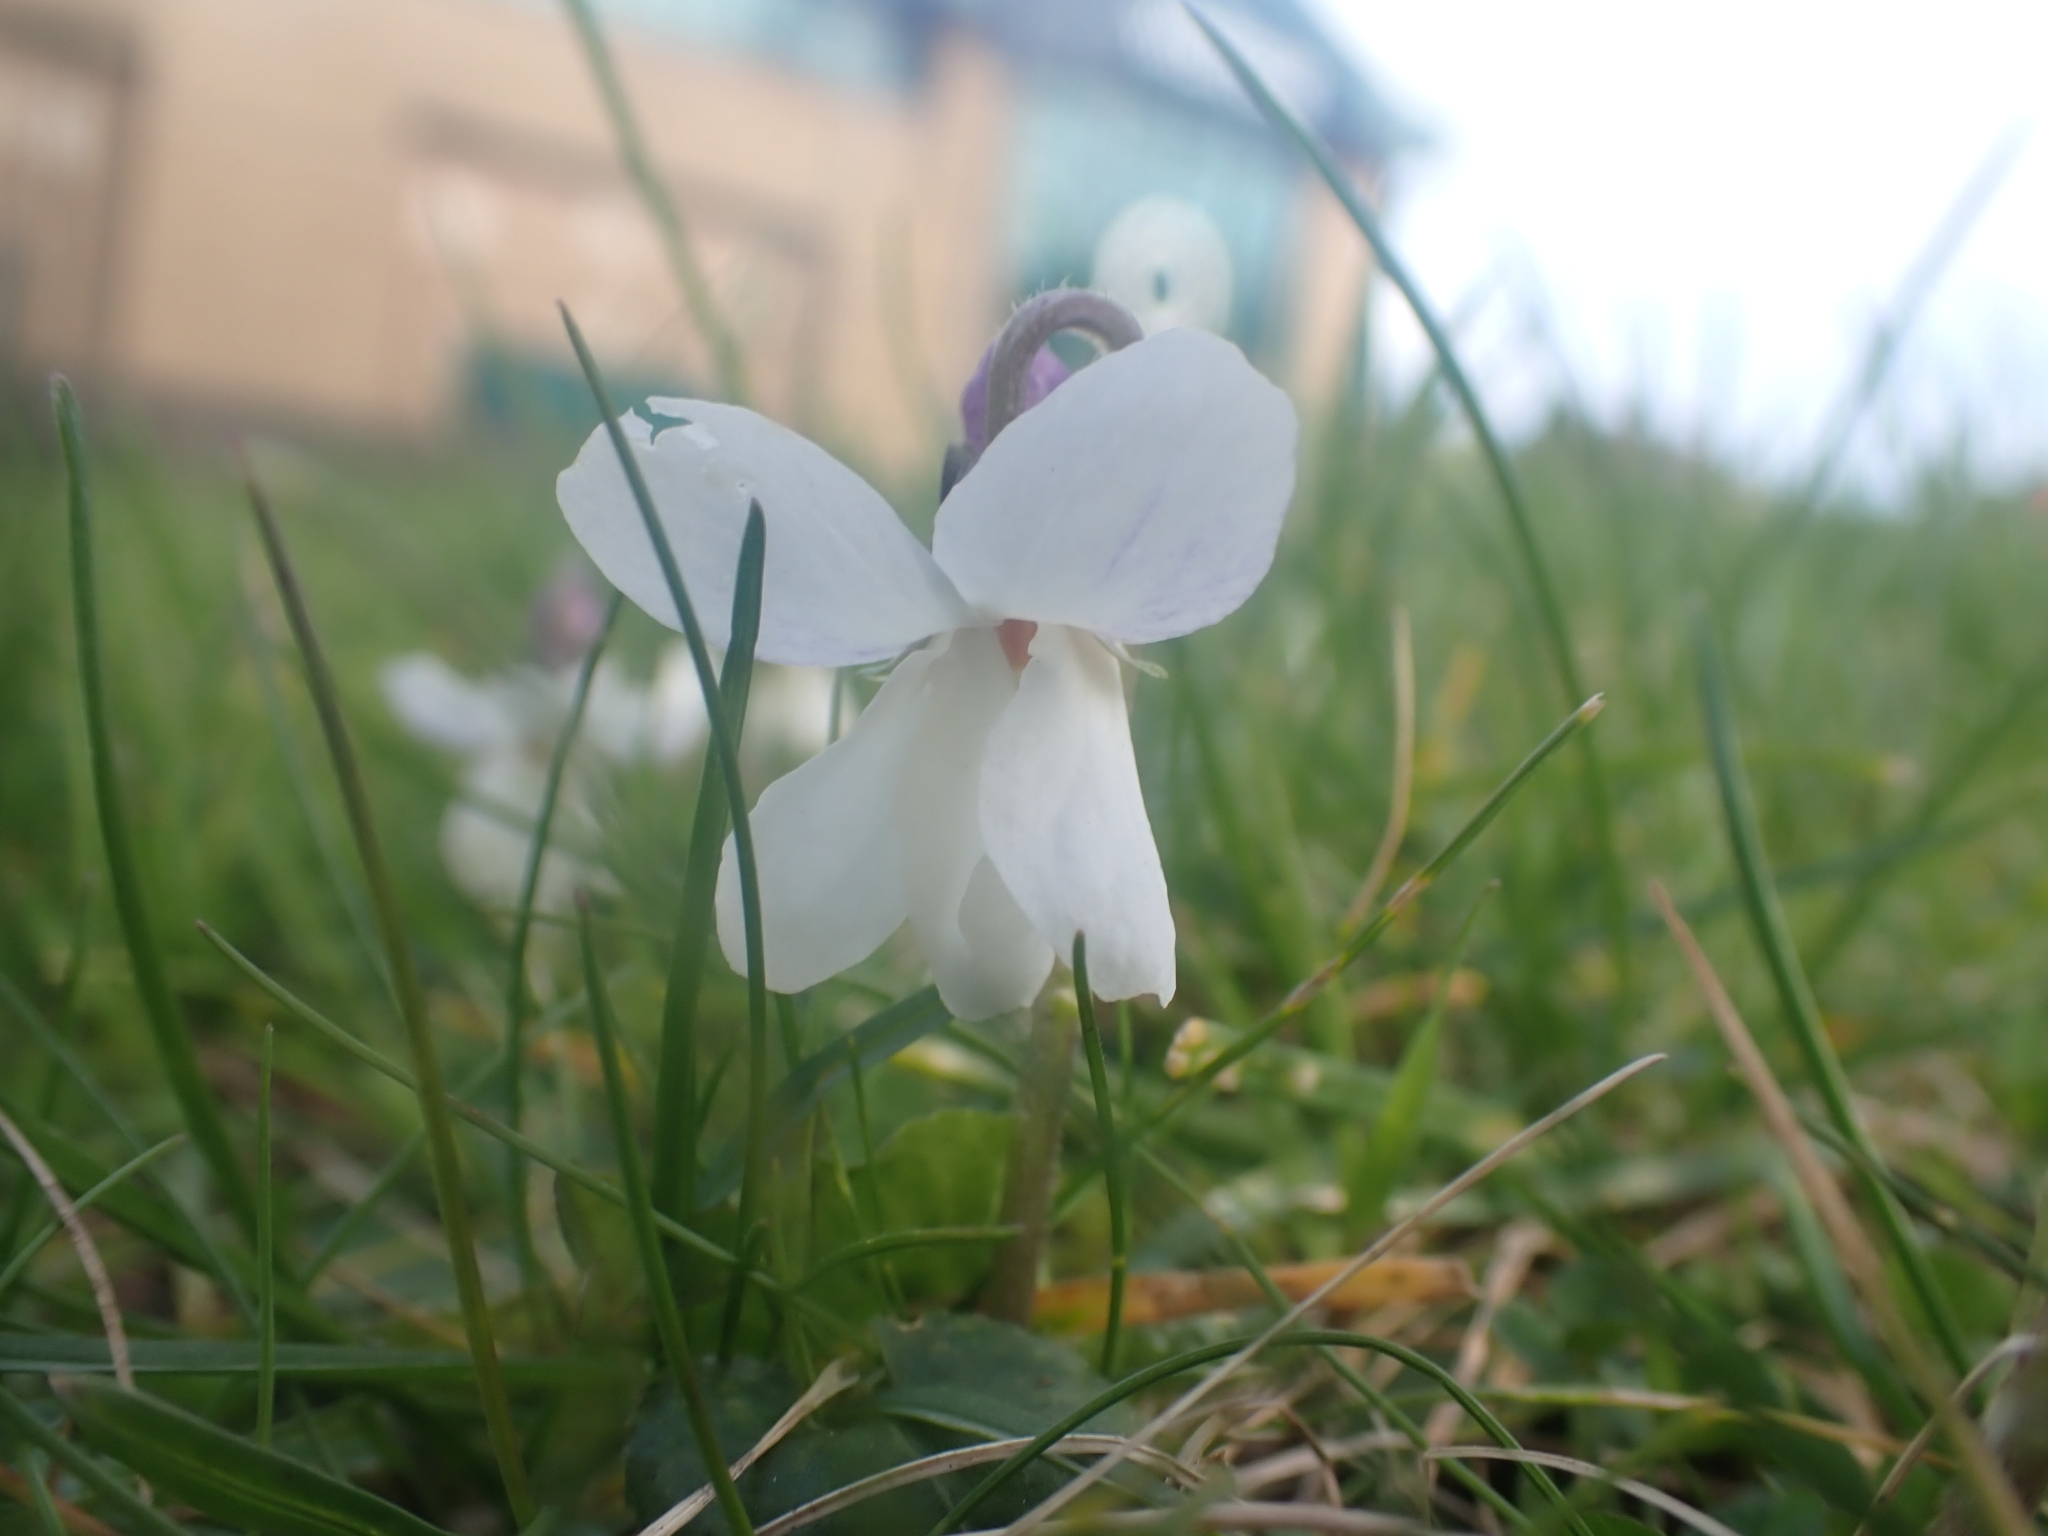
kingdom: Plantae
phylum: Tracheophyta
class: Magnoliopsida
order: Malpighiales
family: Violaceae
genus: Viola
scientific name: Viola odorata
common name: Sweet violet
